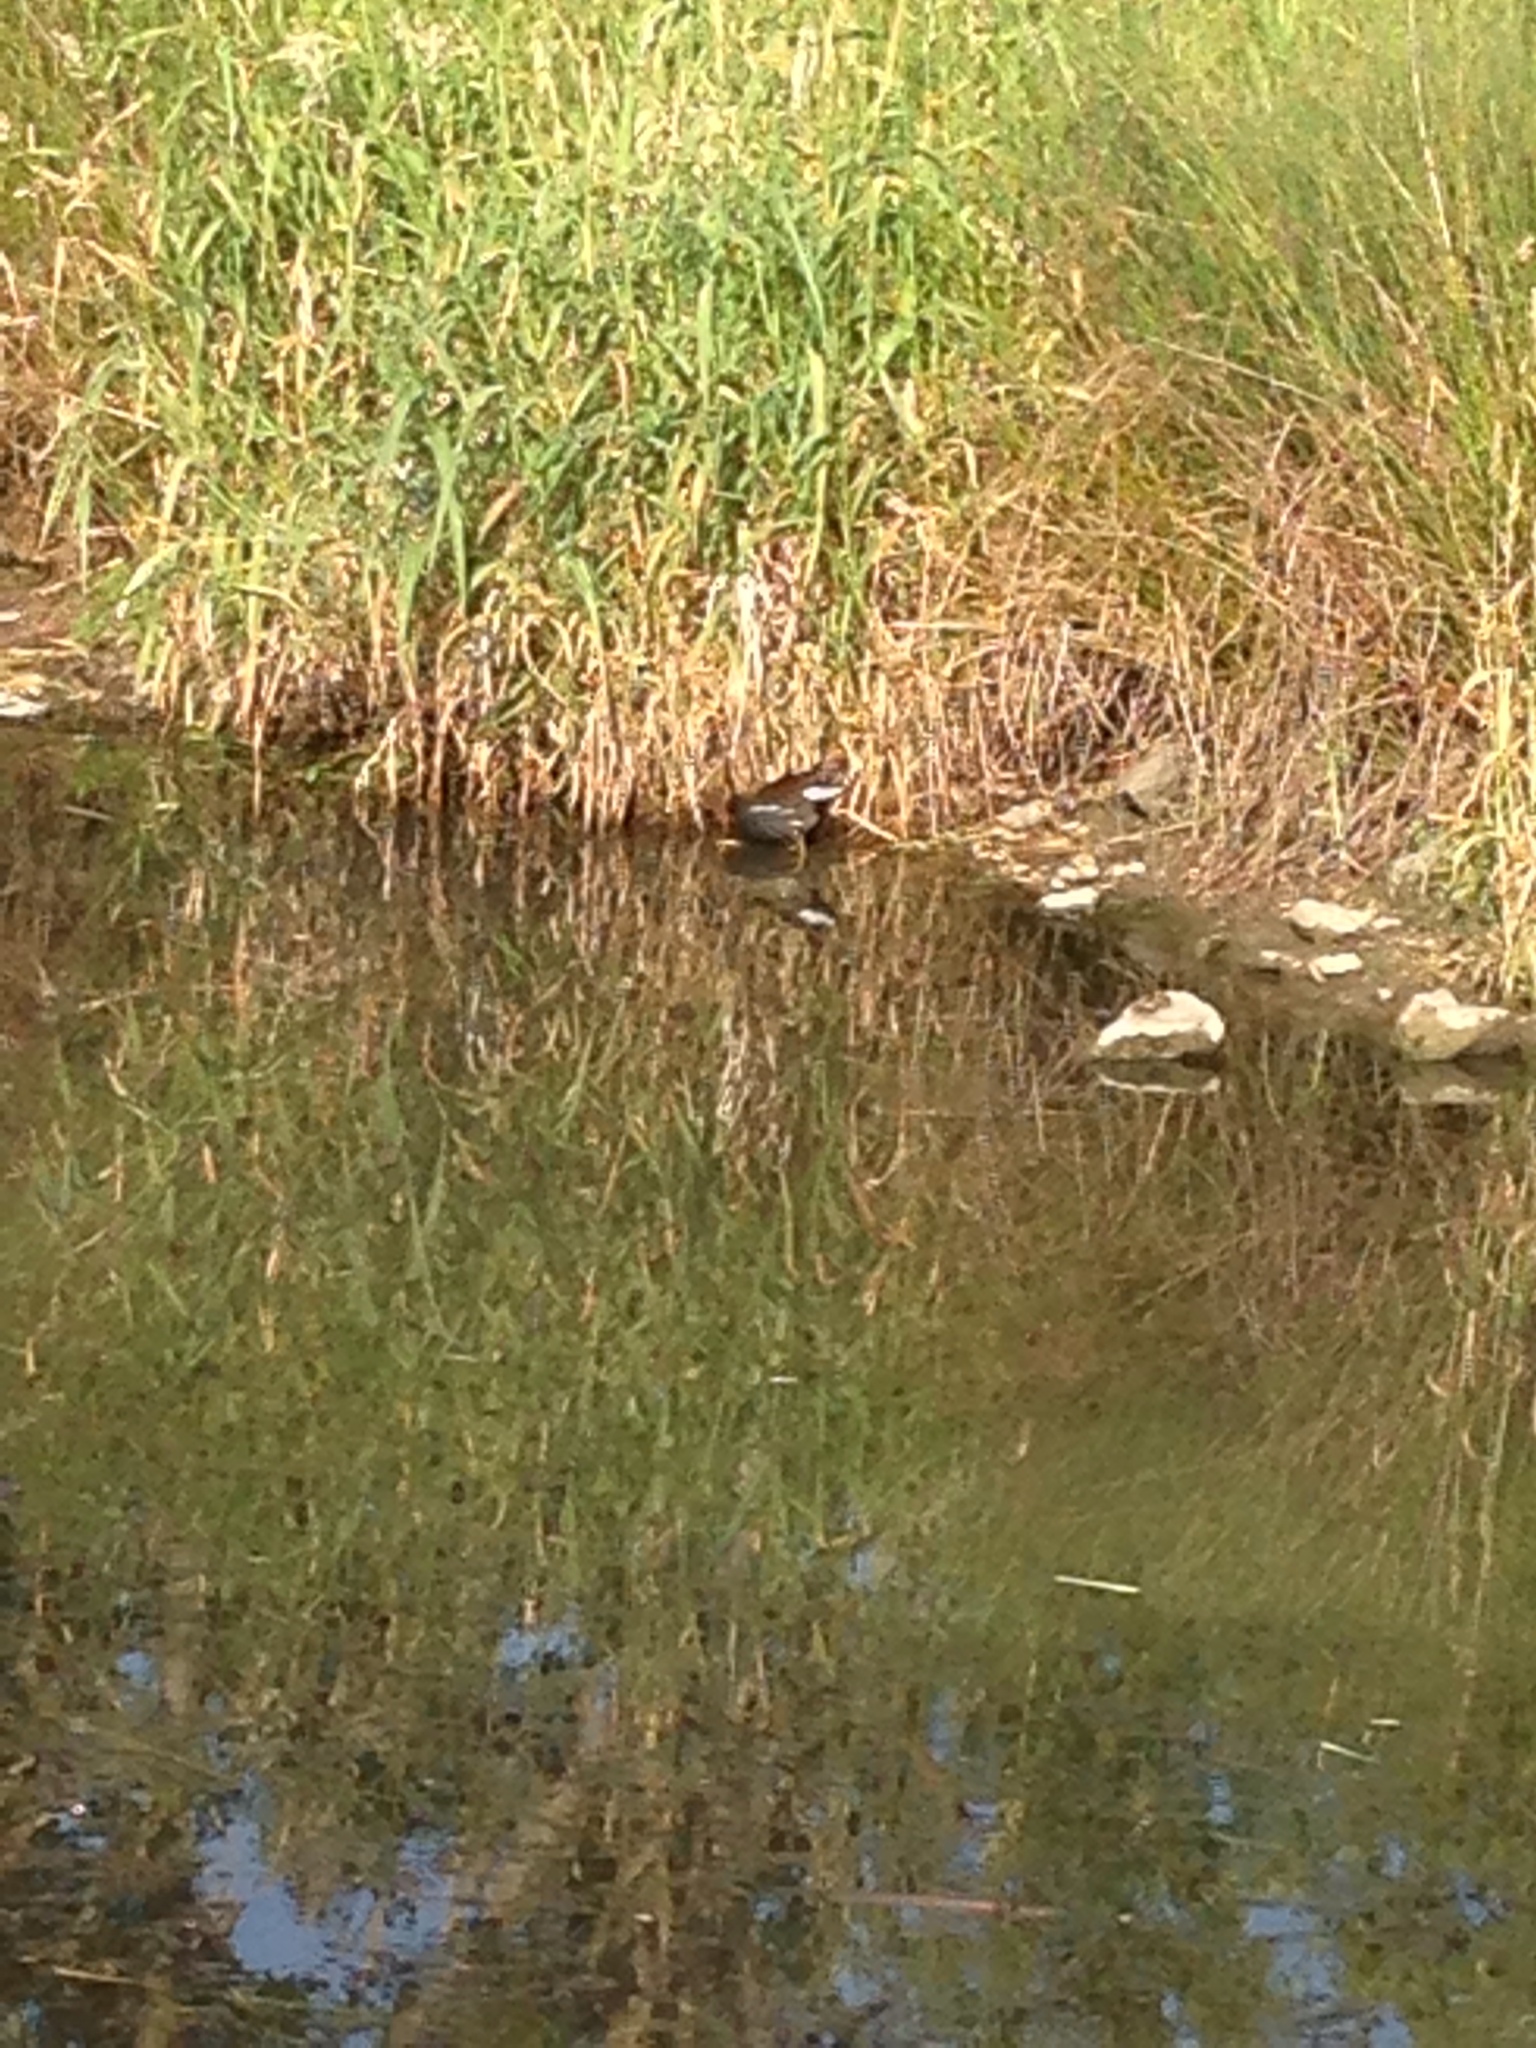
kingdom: Animalia
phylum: Chordata
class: Aves
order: Gruiformes
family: Rallidae
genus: Gallinula
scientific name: Gallinula chloropus
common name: Common moorhen
